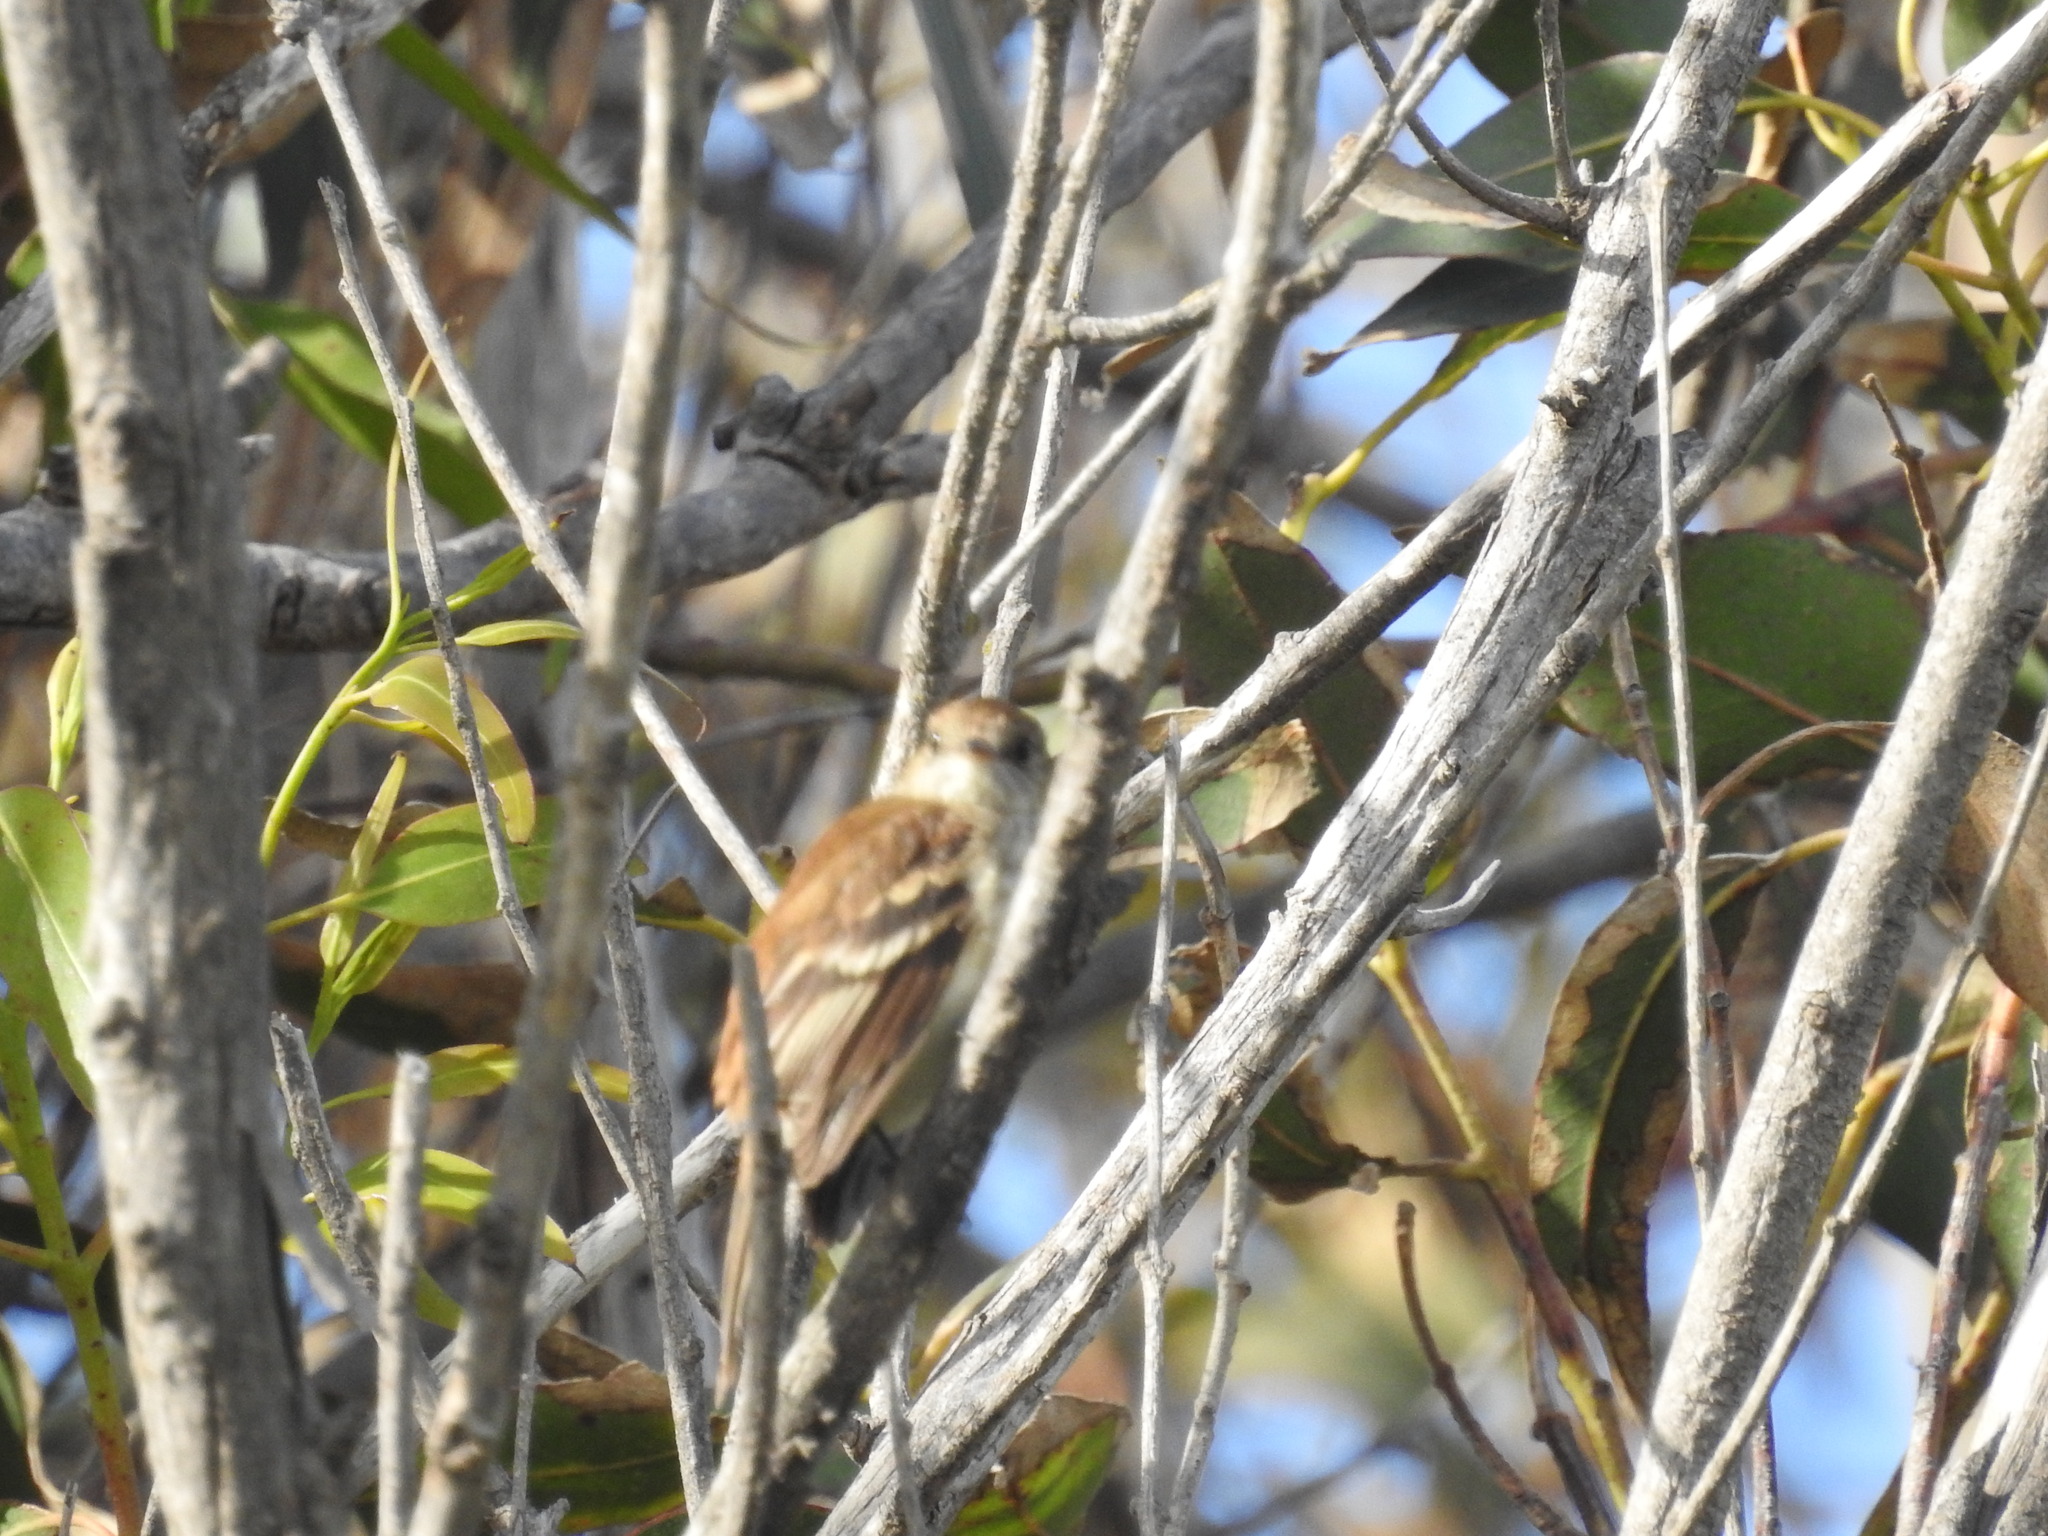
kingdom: Animalia
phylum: Chordata
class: Aves
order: Passeriformes
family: Tyrannidae
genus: Myiophobus
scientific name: Myiophobus fasciatus
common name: Bran-colored flycatcher
